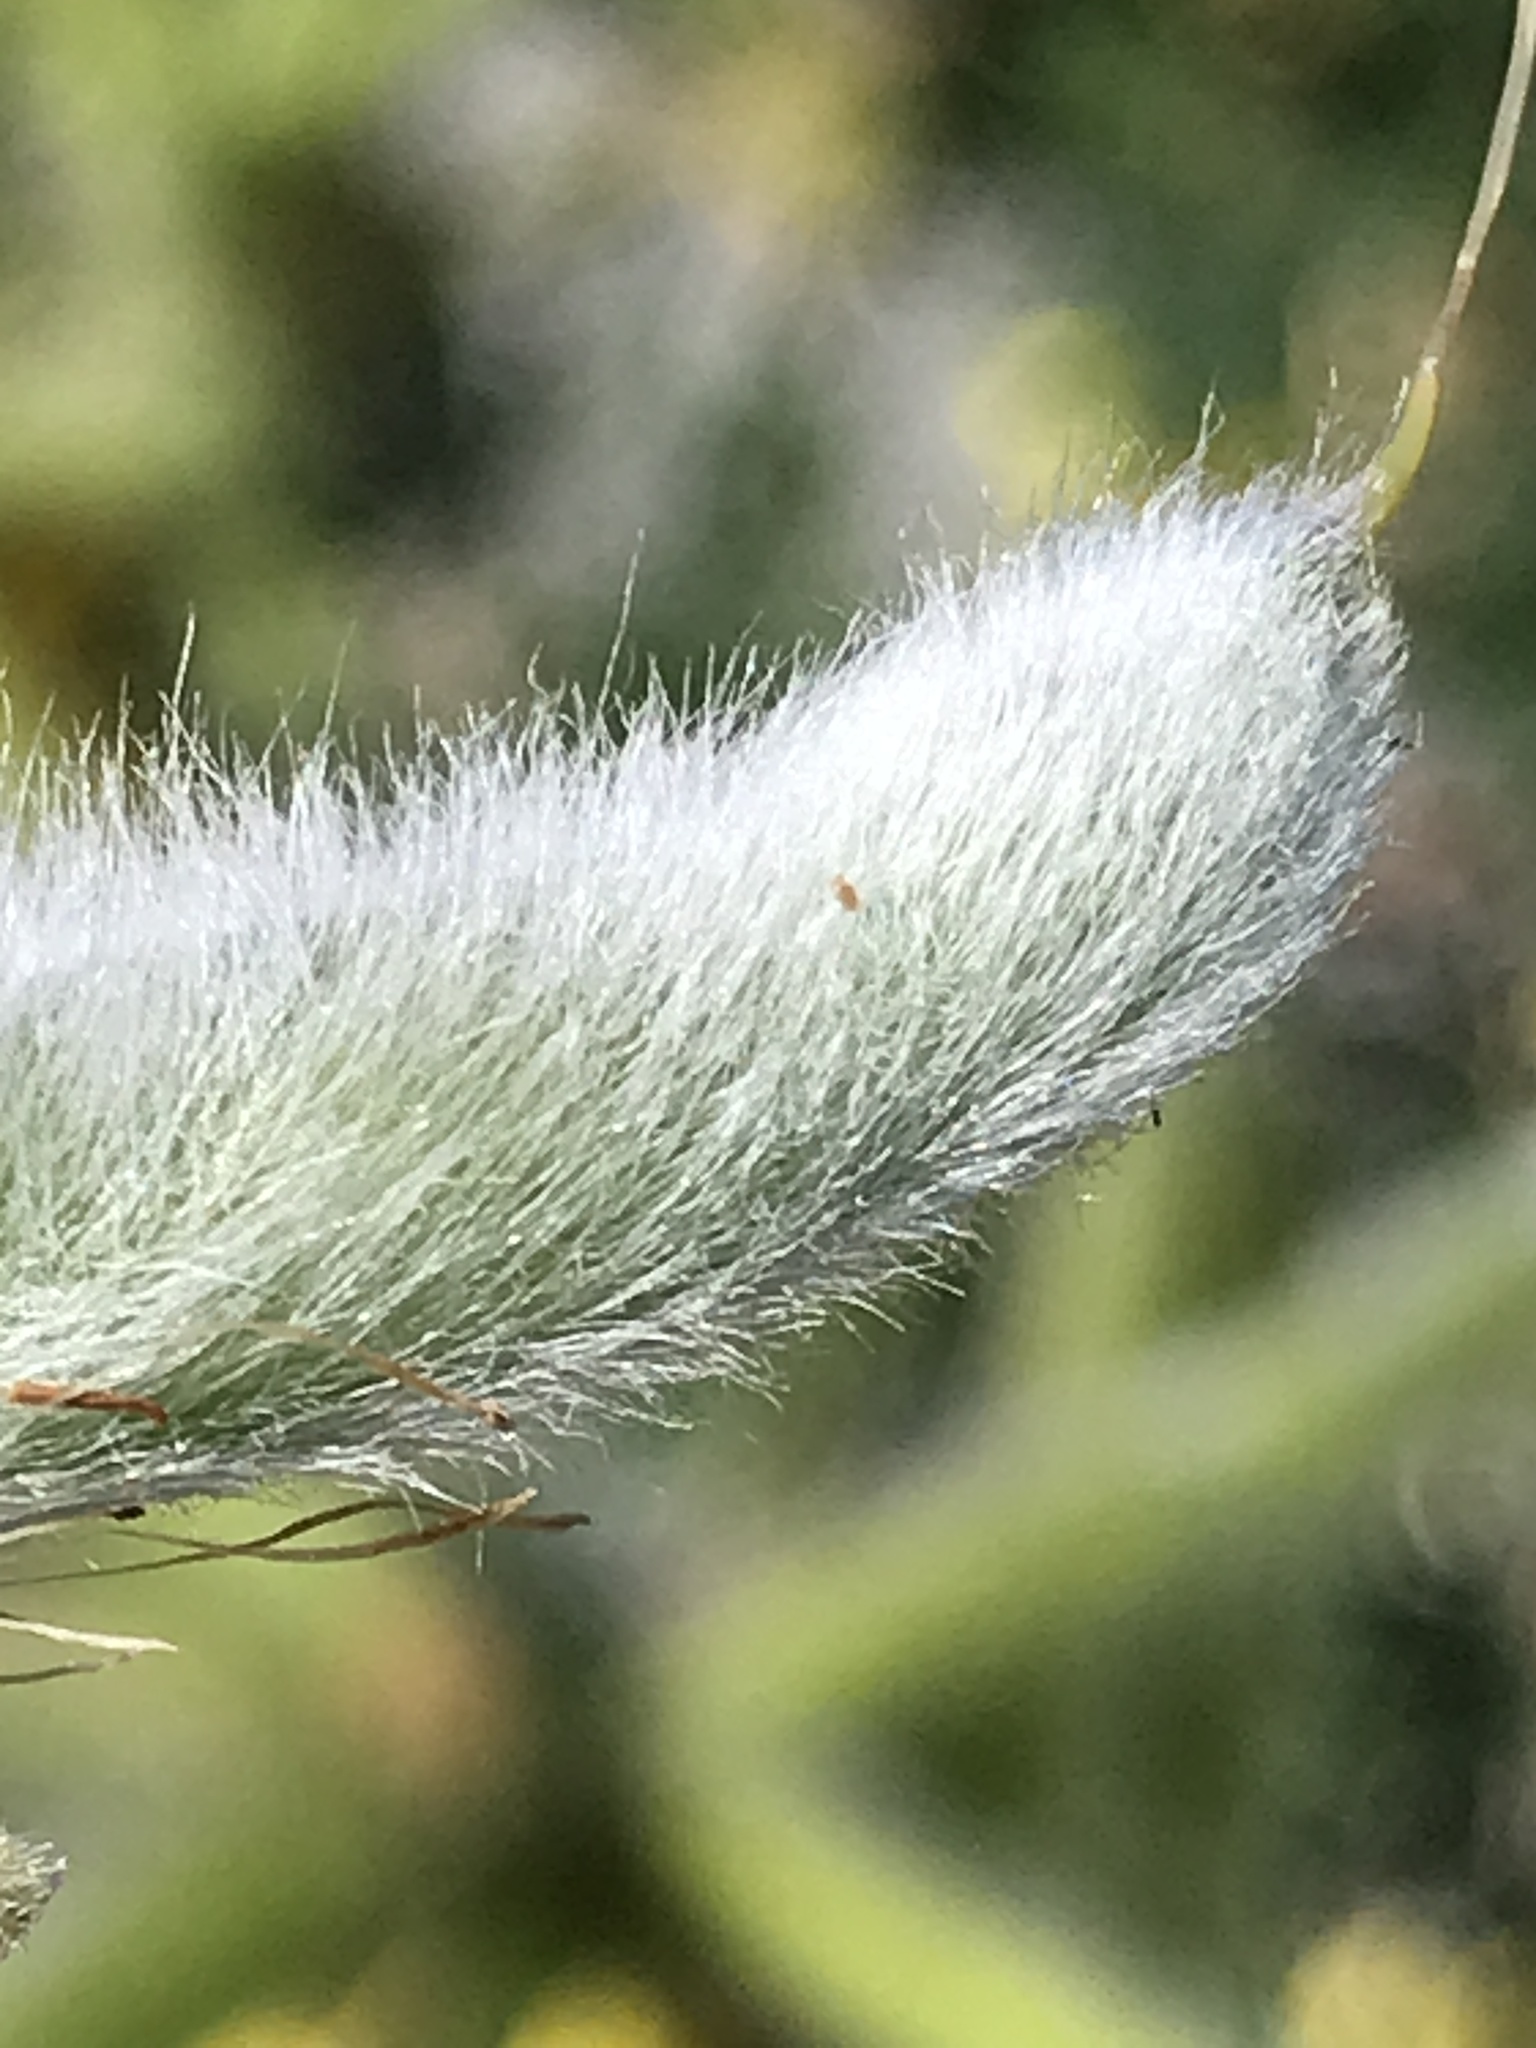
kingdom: Plantae
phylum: Tracheophyta
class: Magnoliopsida
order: Fabales
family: Fabaceae
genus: Lupinus
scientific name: Lupinus arboreus
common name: Yellow bush lupine
